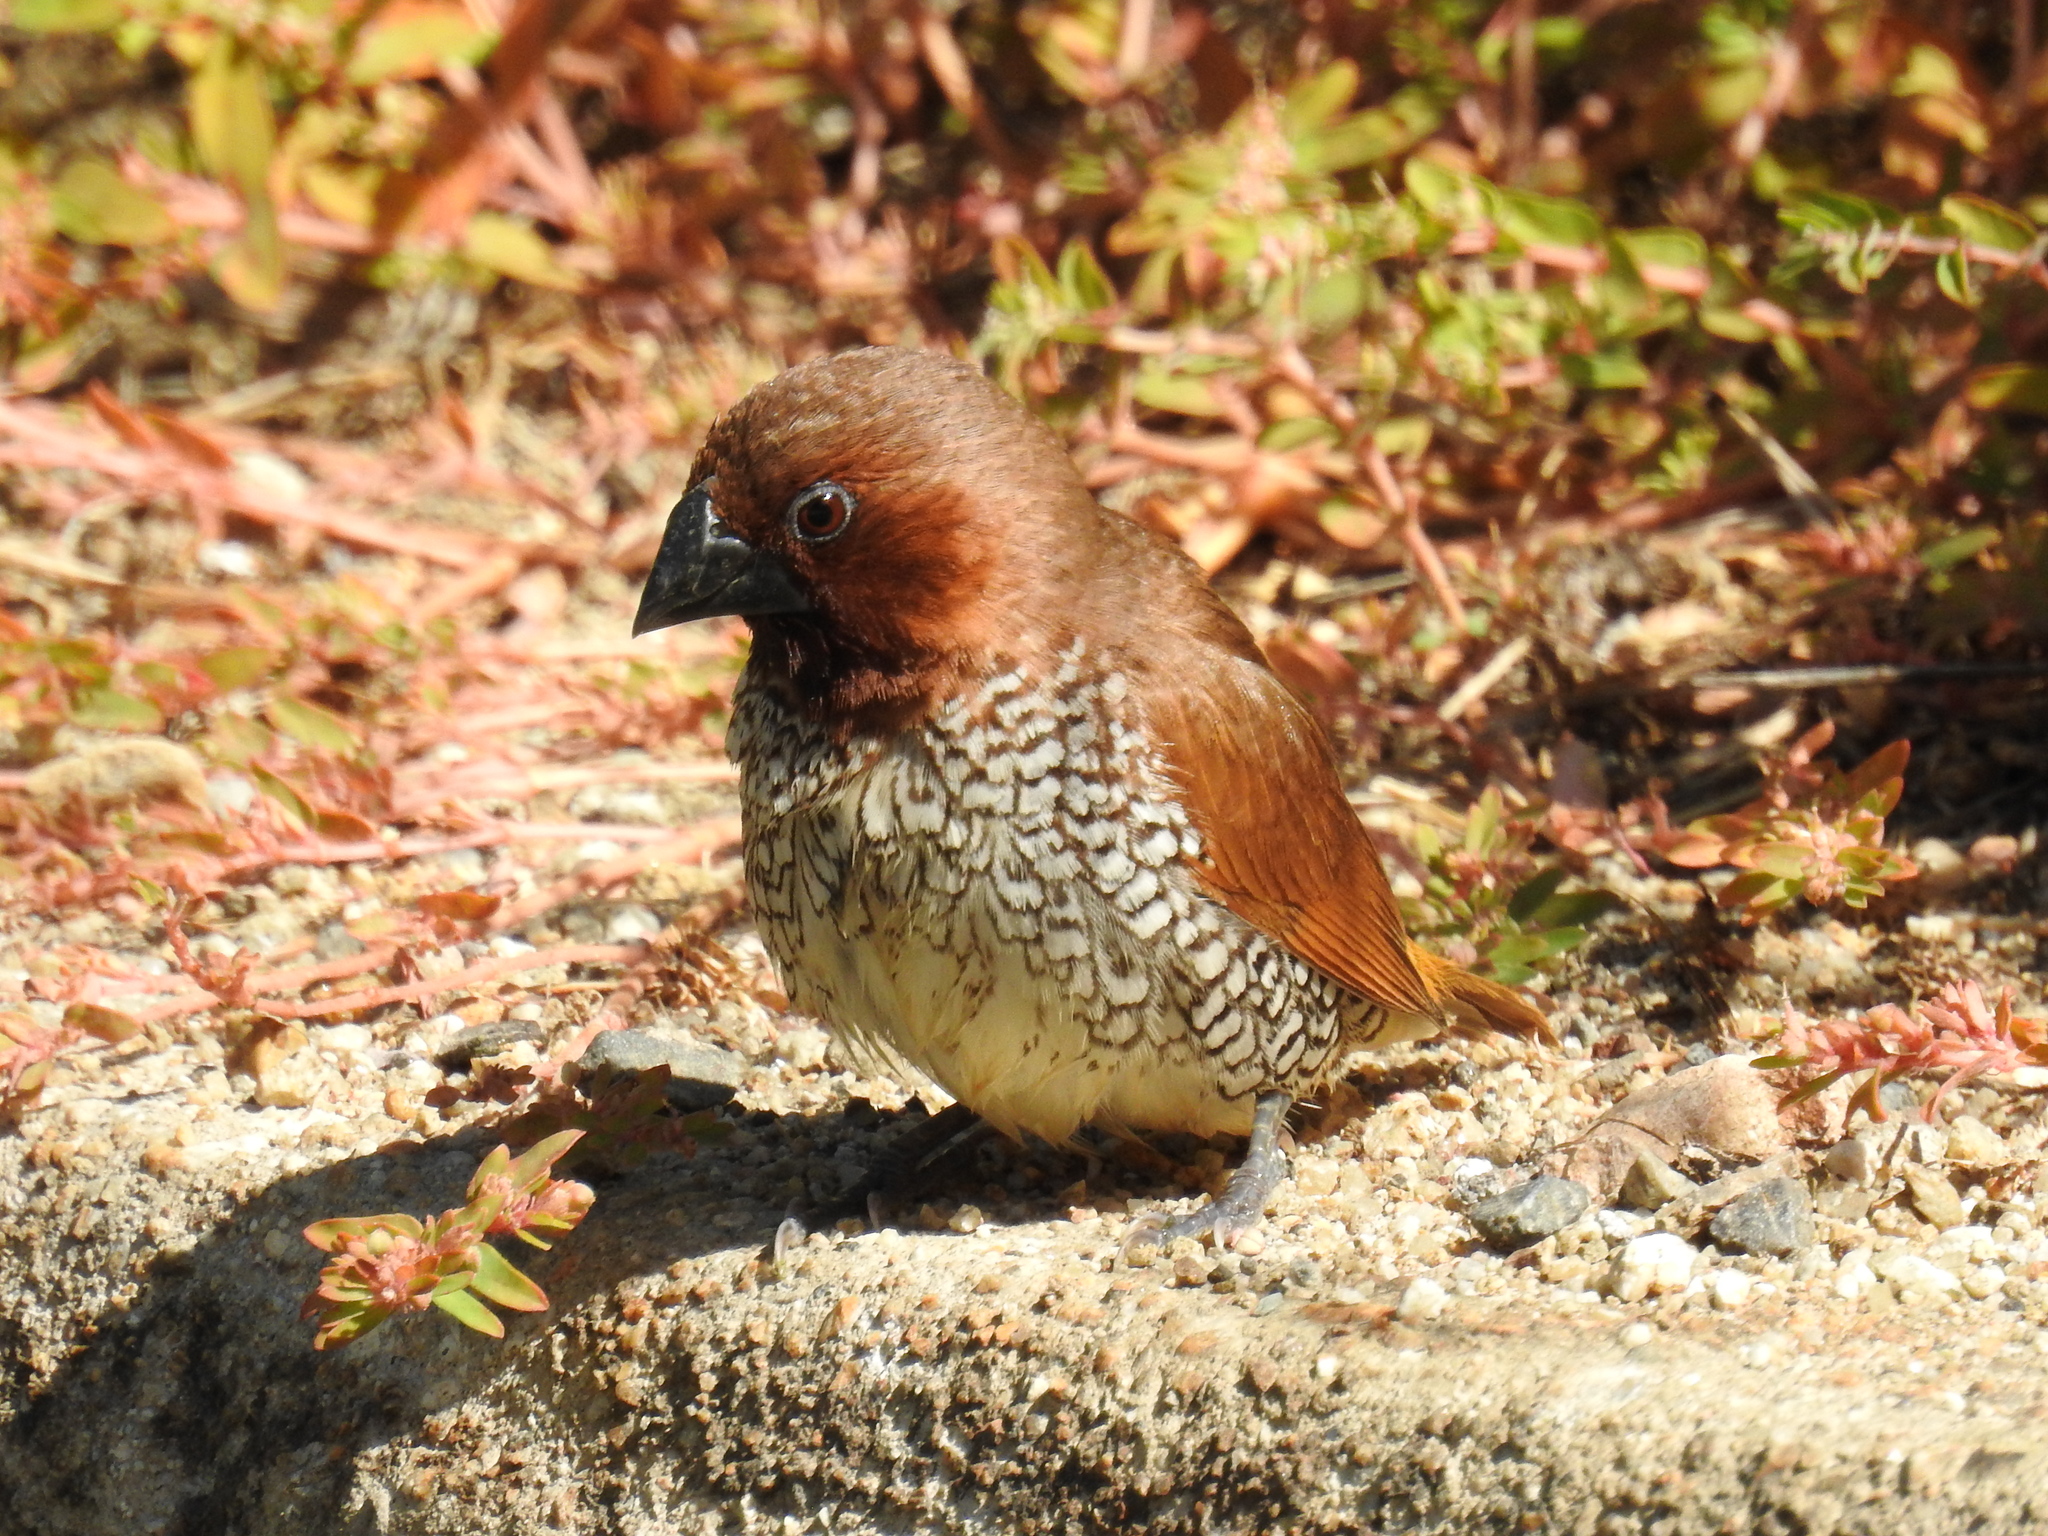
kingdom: Animalia
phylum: Chordata
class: Aves
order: Passeriformes
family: Estrildidae
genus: Lonchura
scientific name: Lonchura punctulata
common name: Scaly-breasted munia
